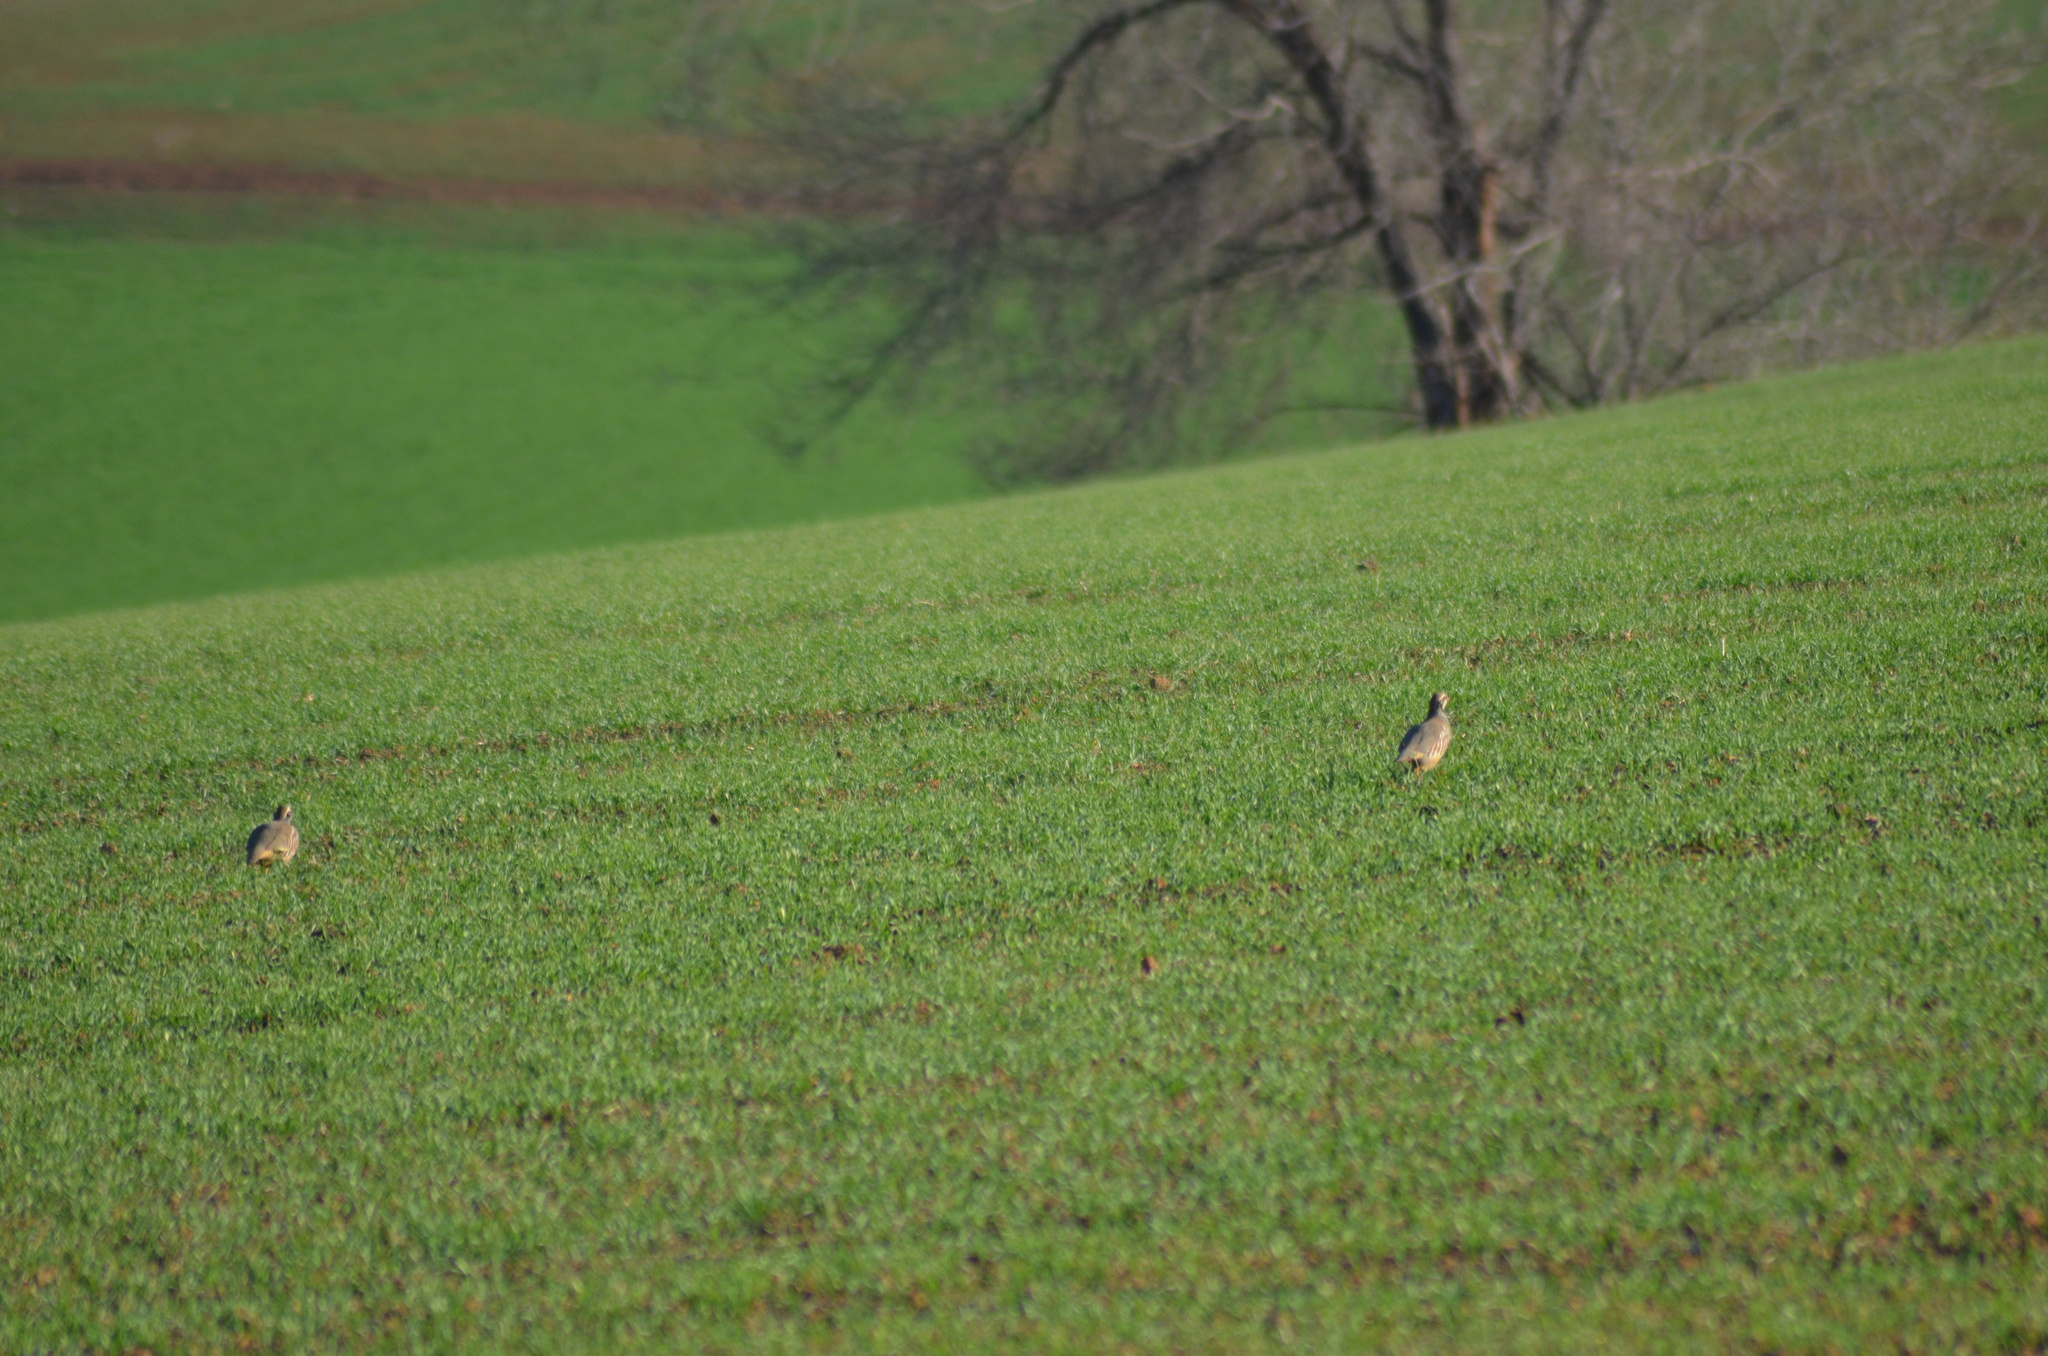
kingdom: Animalia
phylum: Chordata
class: Aves
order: Galliformes
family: Phasianidae
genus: Alectoris
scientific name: Alectoris rufa
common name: Red-legged partridge
